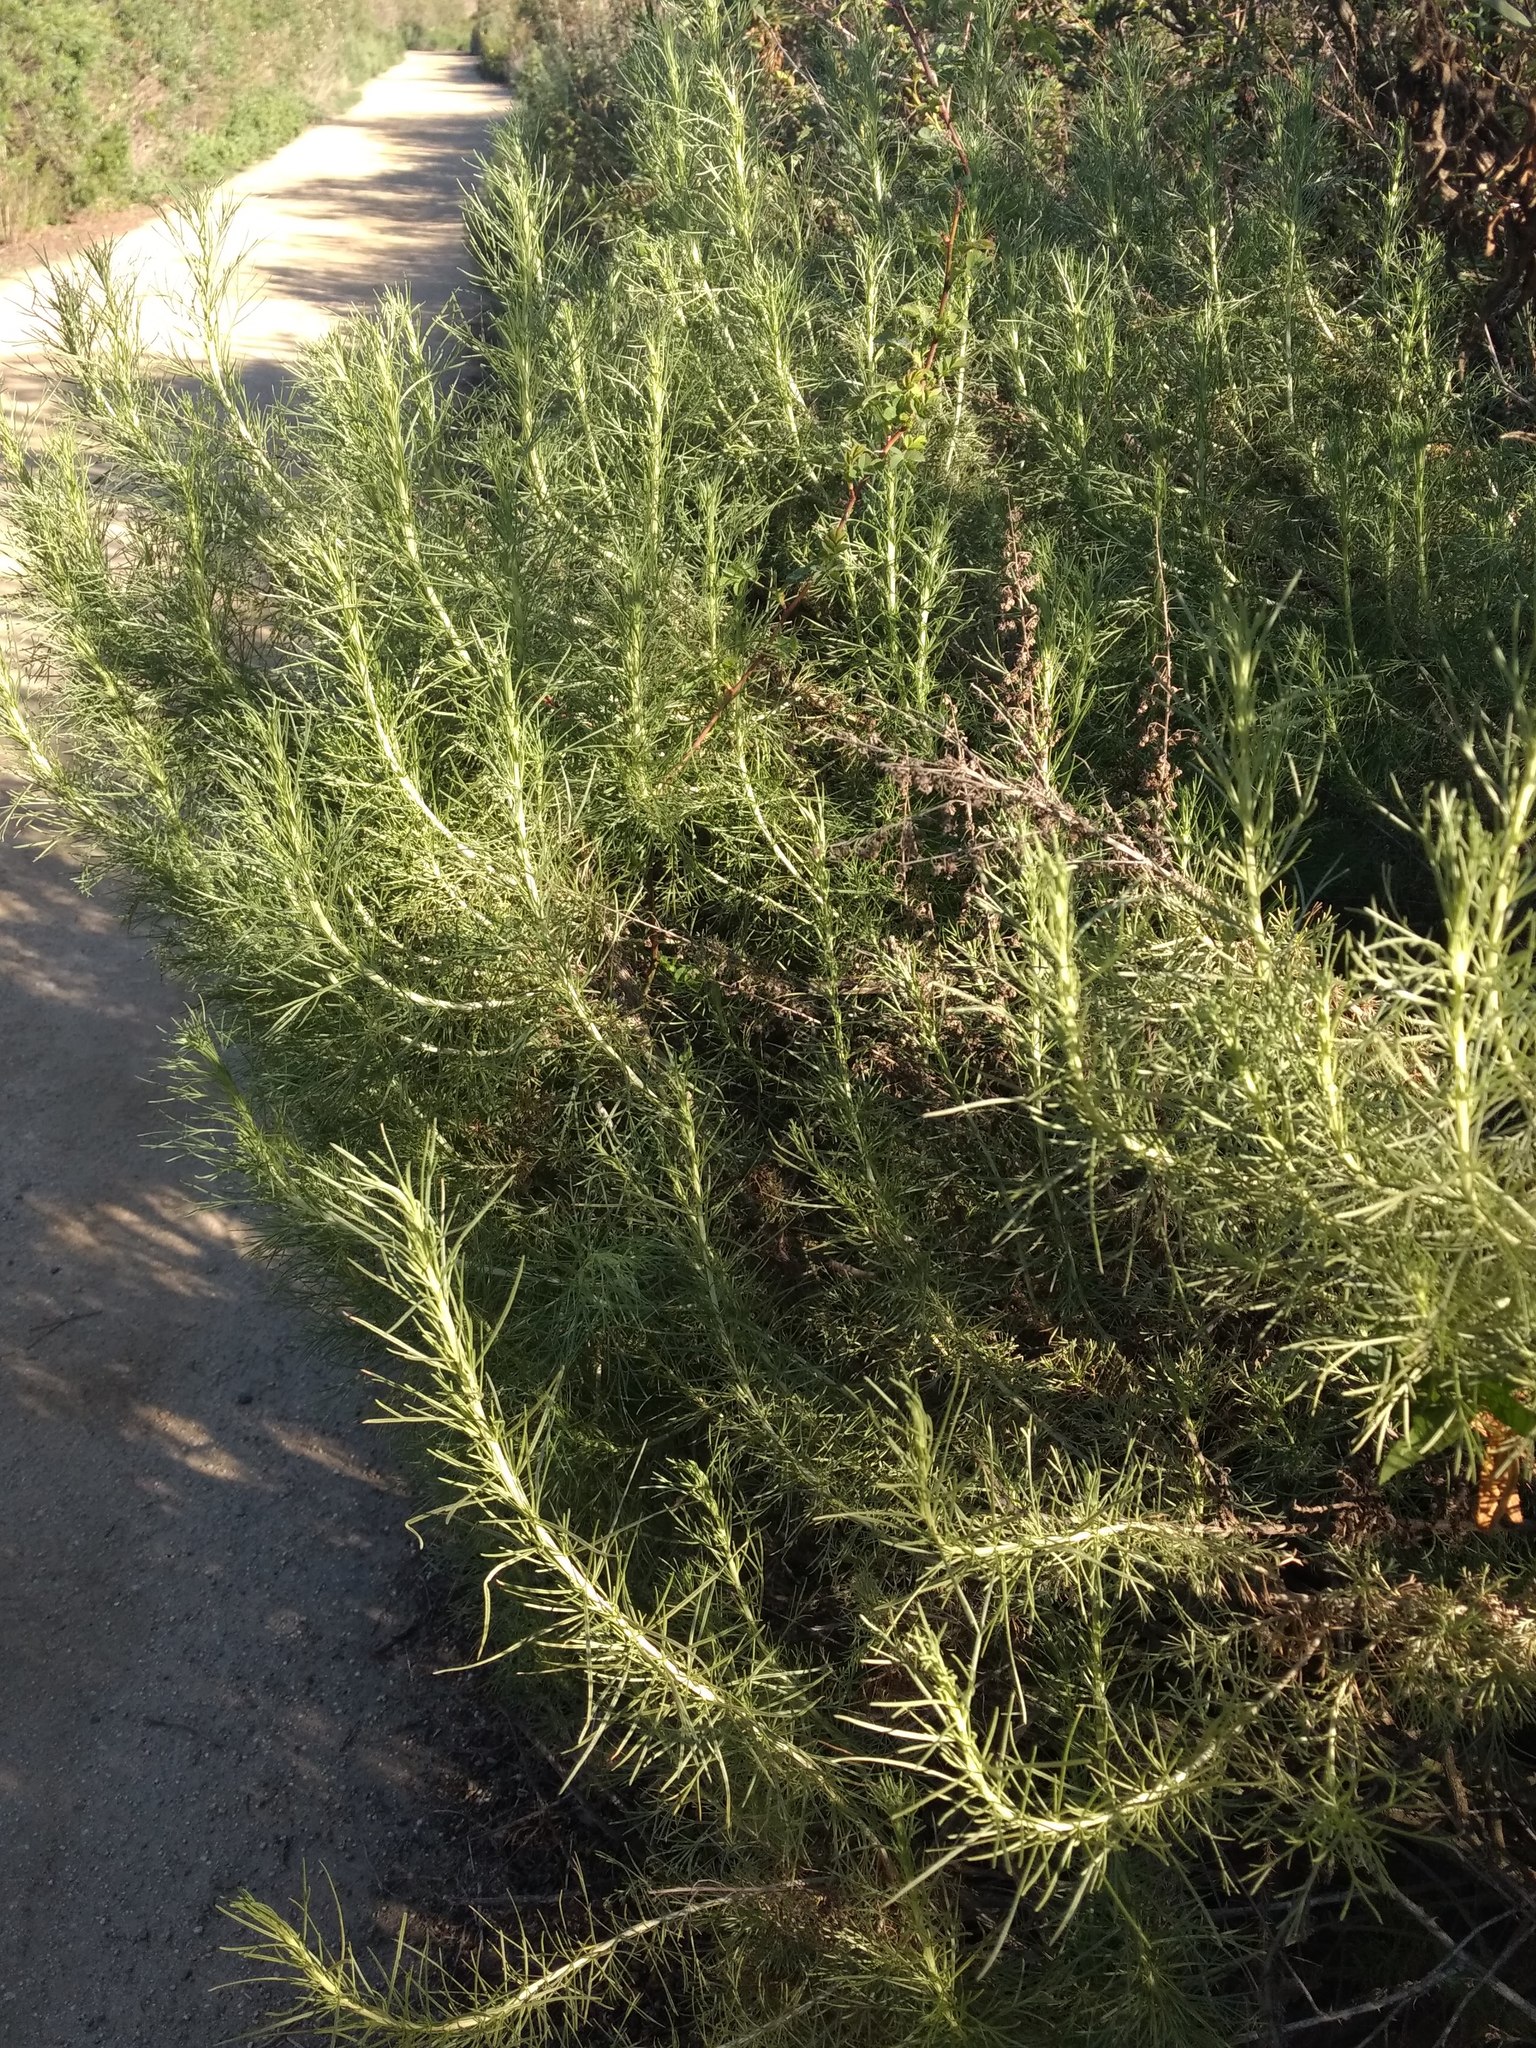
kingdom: Plantae
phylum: Tracheophyta
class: Magnoliopsida
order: Asterales
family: Asteraceae
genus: Artemisia
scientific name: Artemisia californica
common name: California sagebrush
